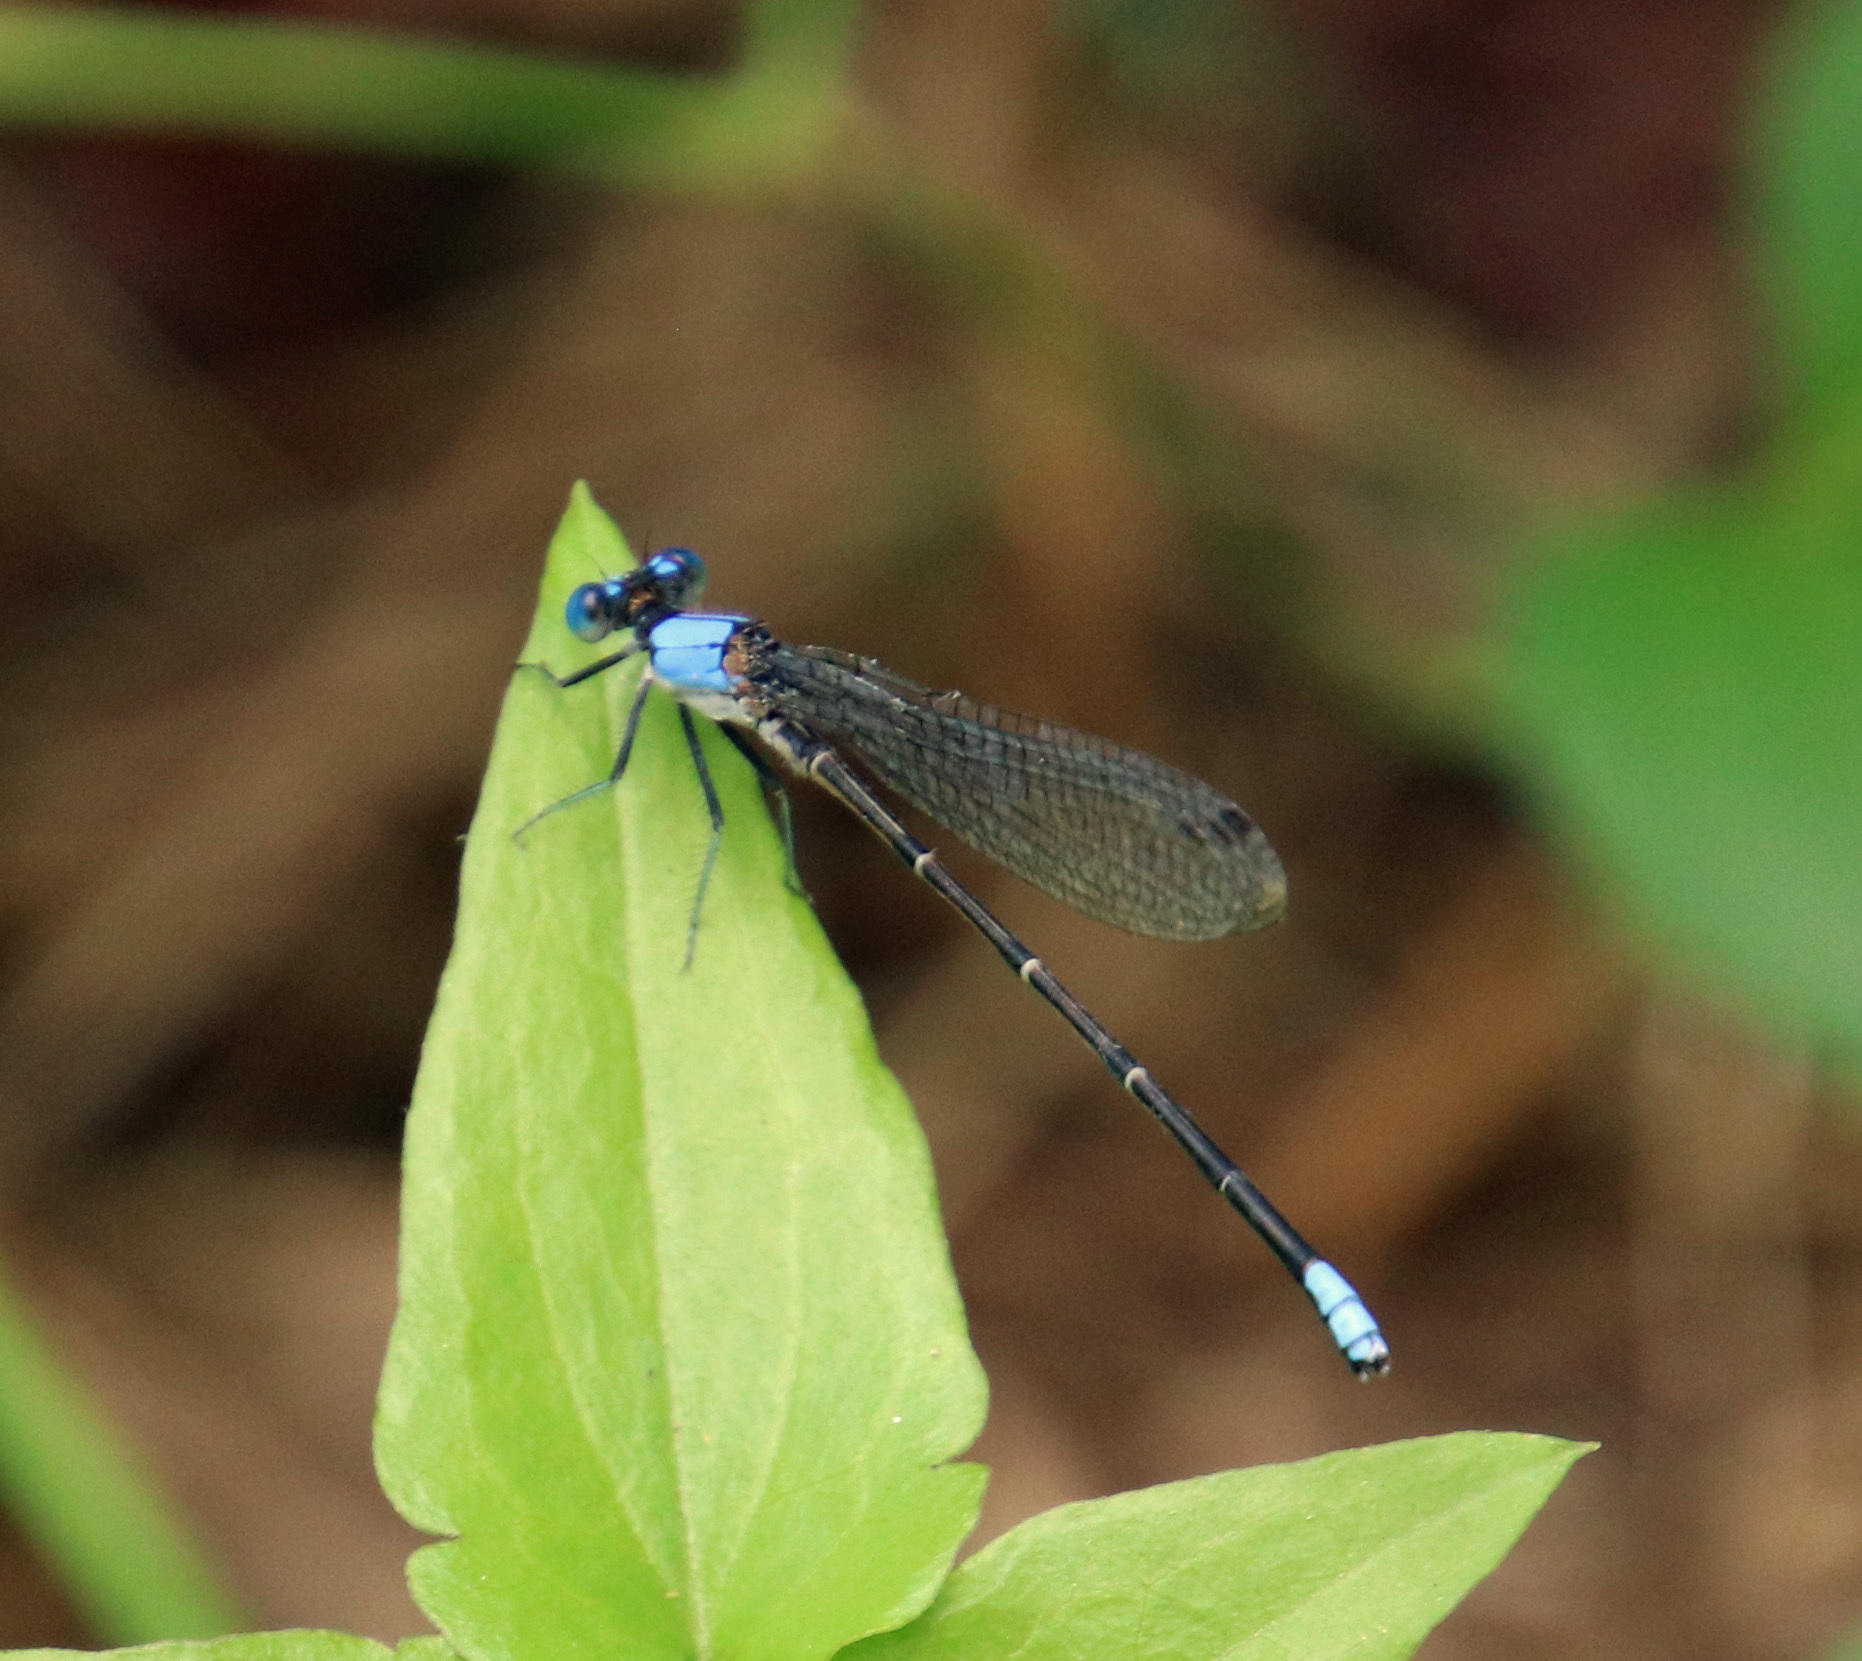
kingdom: Animalia
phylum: Arthropoda
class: Insecta
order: Odonata
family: Coenagrionidae
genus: Argia
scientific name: Argia apicalis
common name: Blue-fronted dancer
